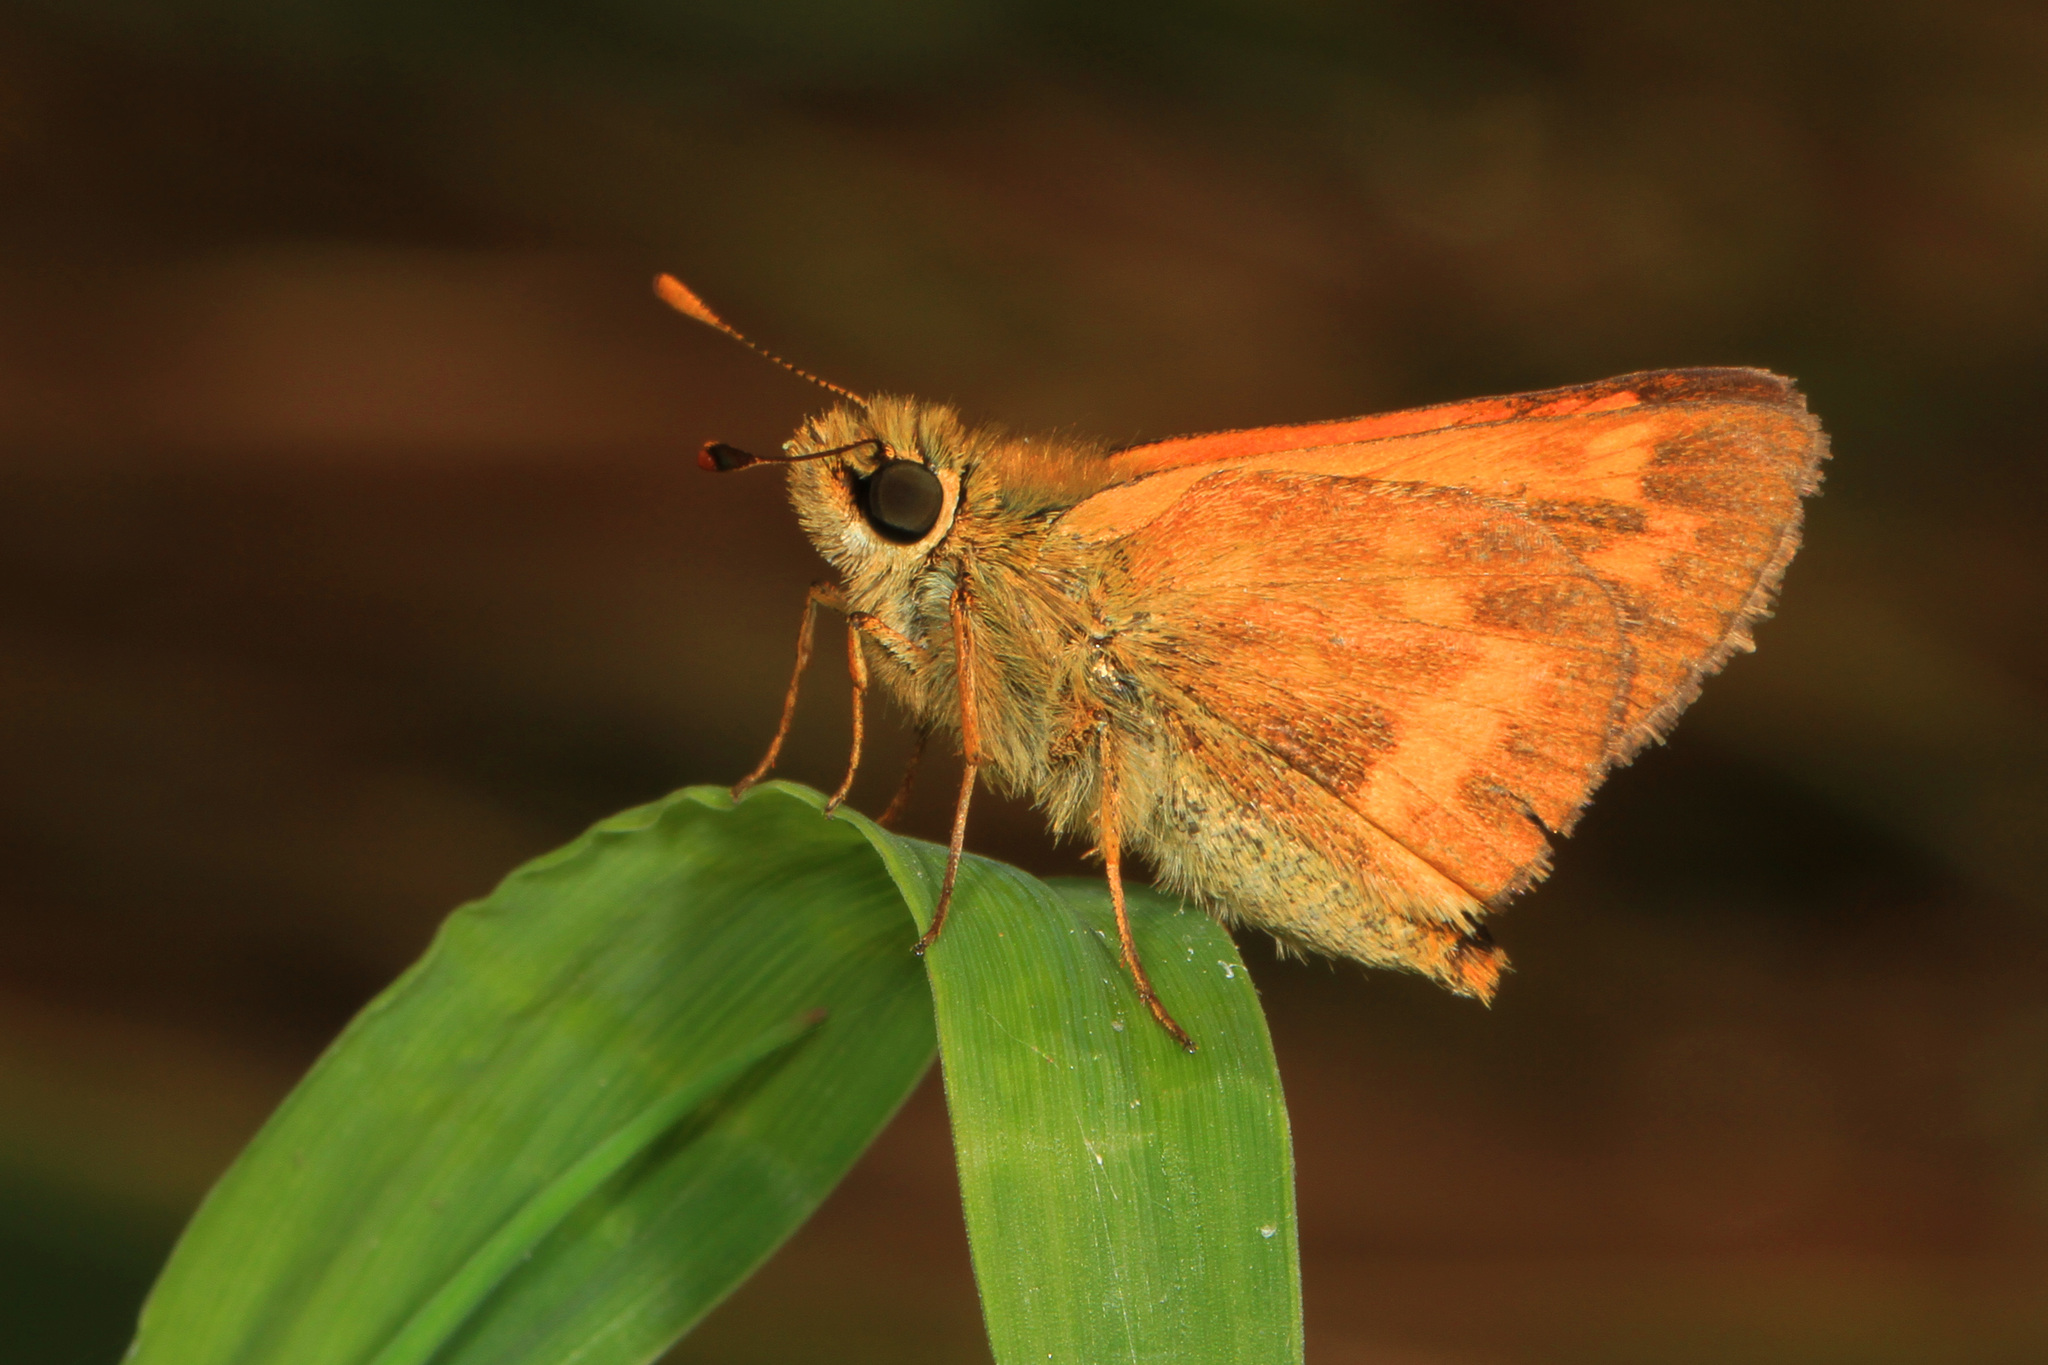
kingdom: Animalia
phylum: Arthropoda
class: Insecta
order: Lepidoptera
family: Hesperiidae
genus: Ochlodes
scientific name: Ochlodes sylvanoides
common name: Woodland skipper
